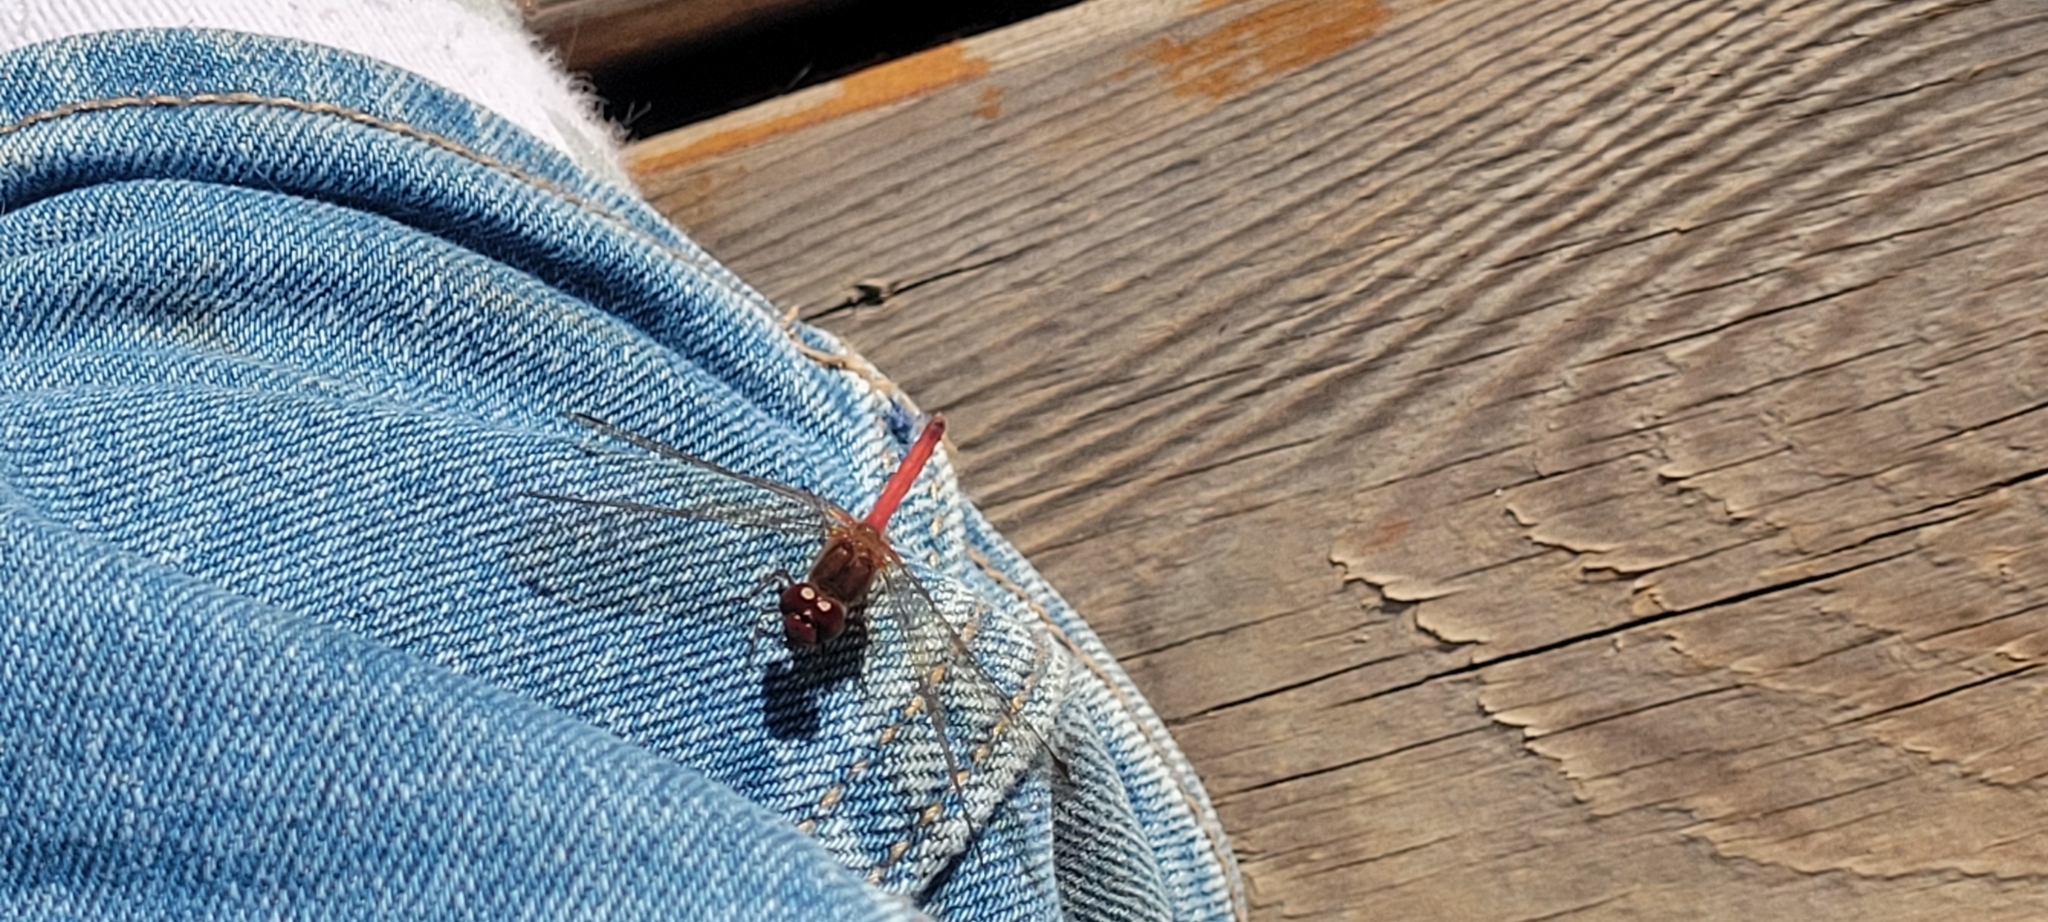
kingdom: Animalia
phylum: Arthropoda
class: Insecta
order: Odonata
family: Libellulidae
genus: Sympetrum
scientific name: Sympetrum vicinum
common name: Autumn meadowhawk
